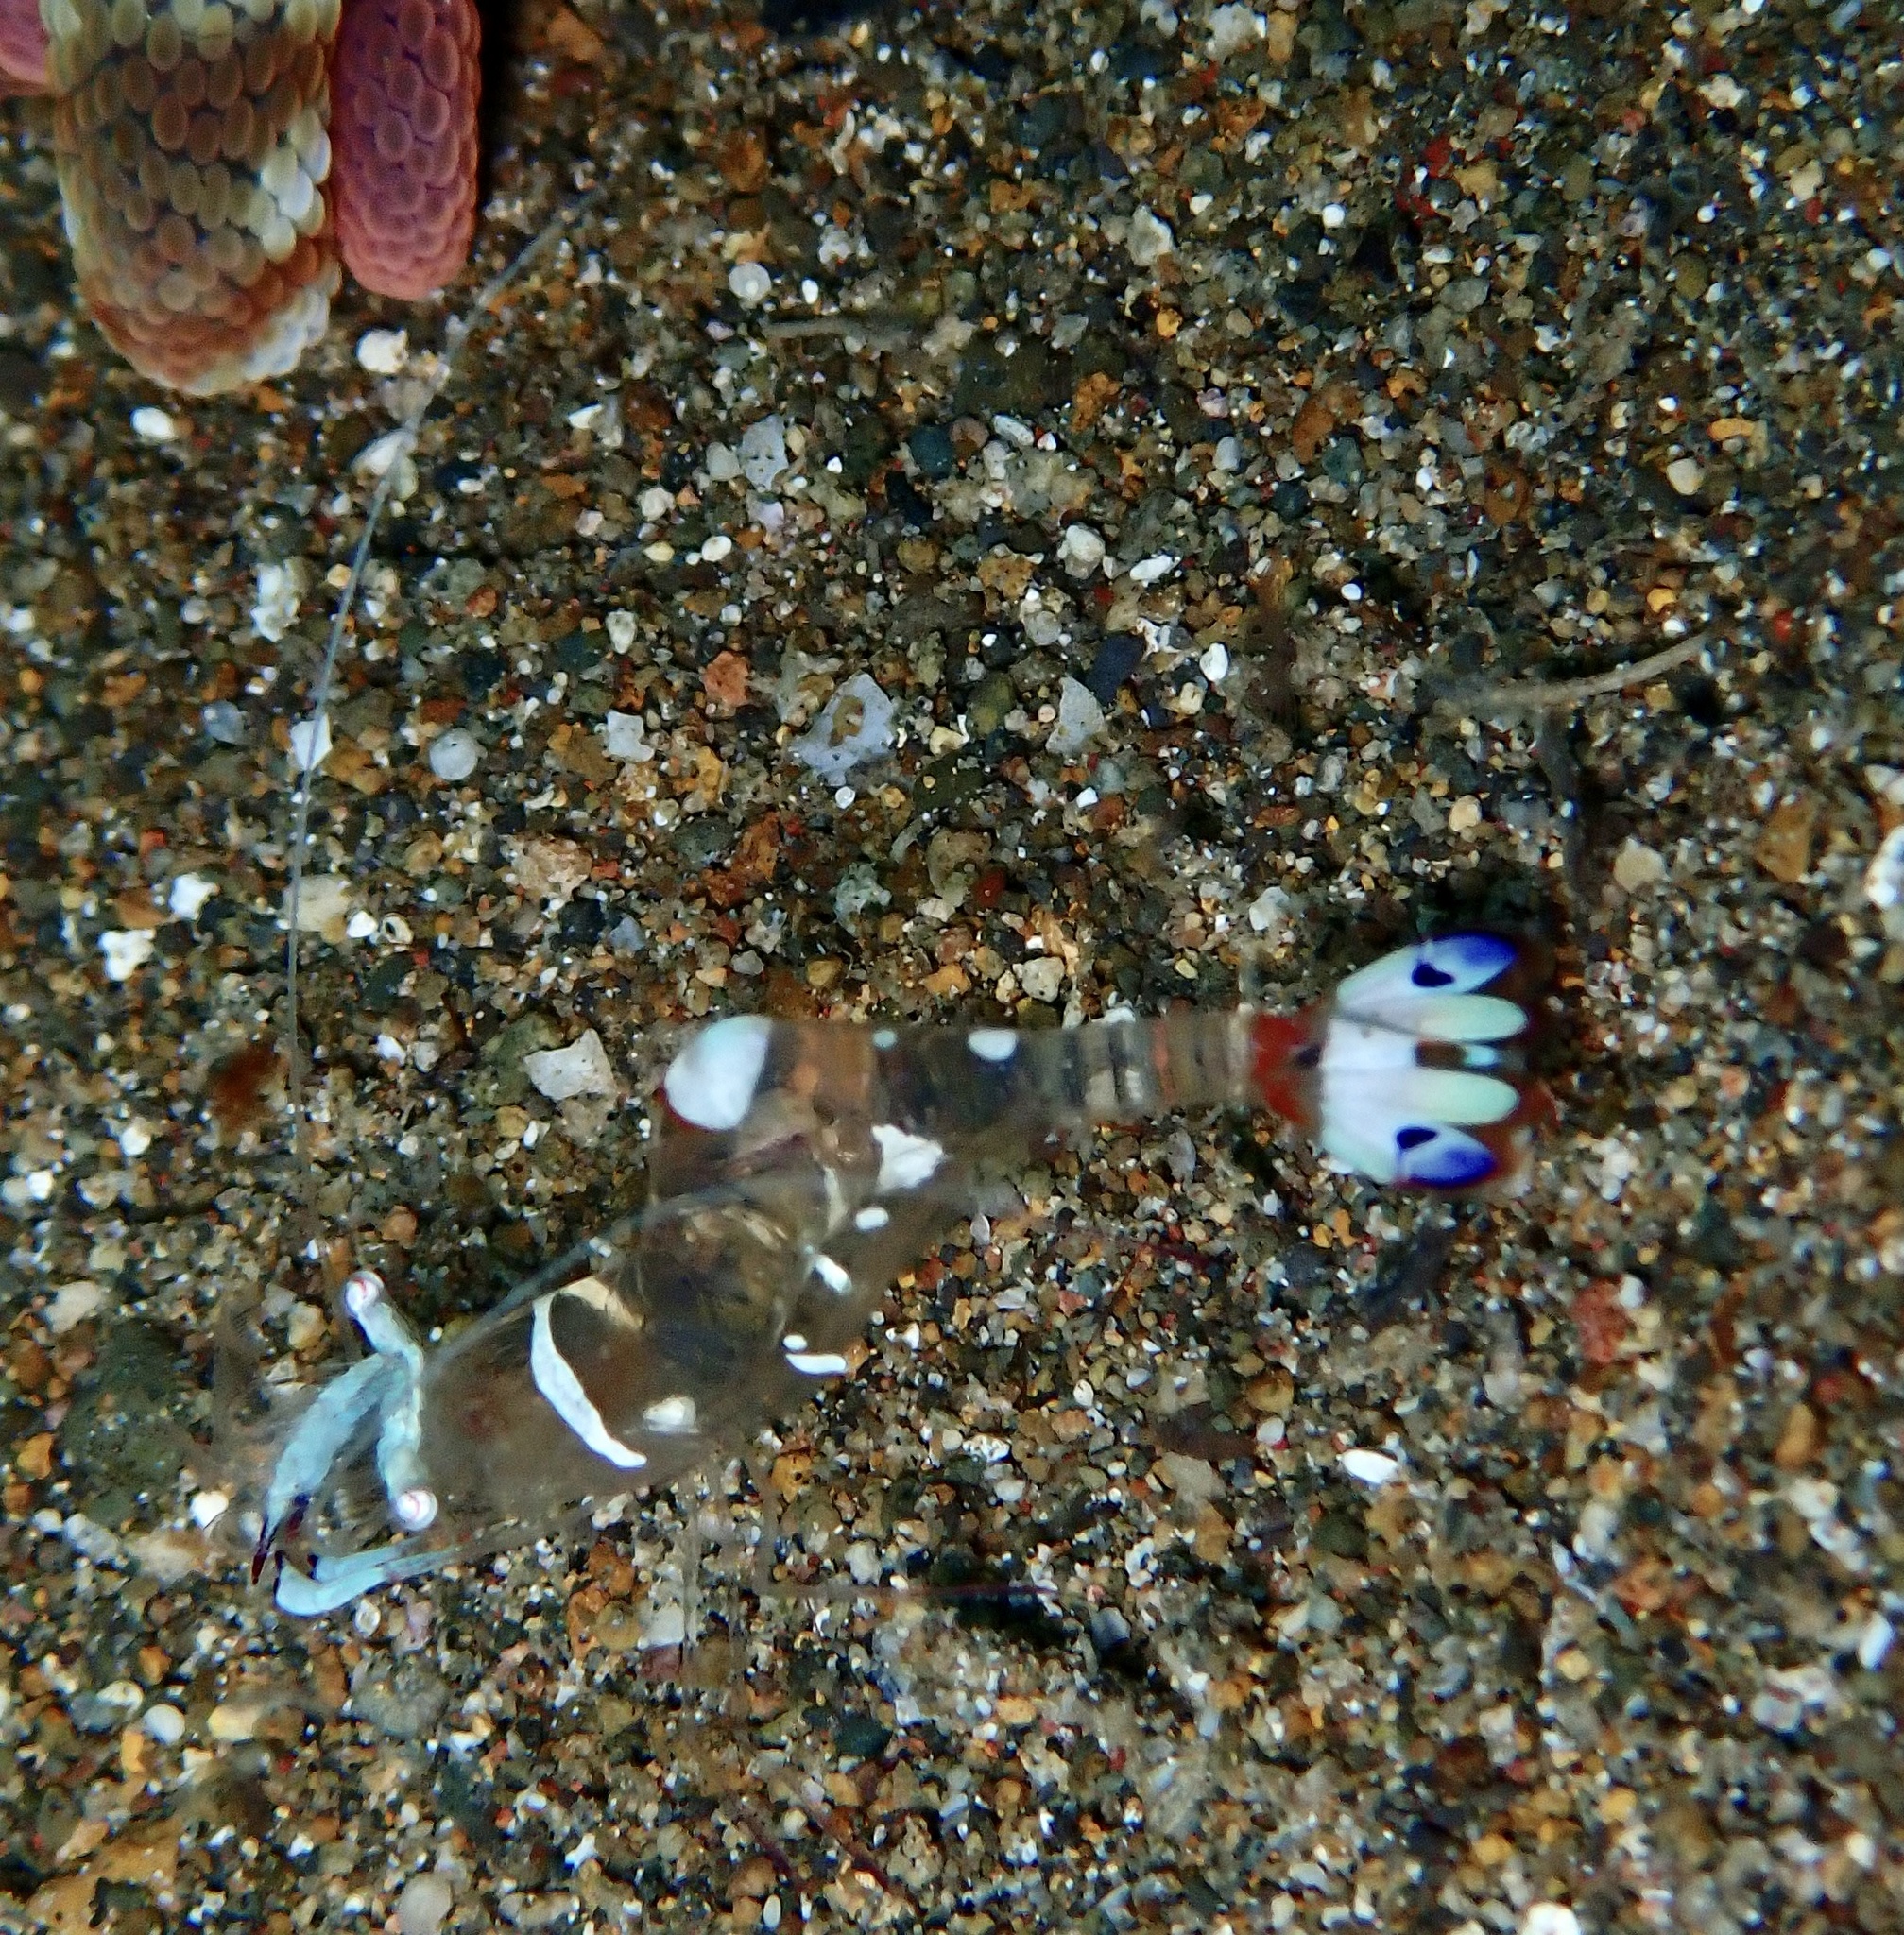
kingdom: Animalia
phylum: Arthropoda
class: Malacostraca
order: Decapoda
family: Palaemonidae
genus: Ancylomenes
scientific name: Ancylomenes magnificus
